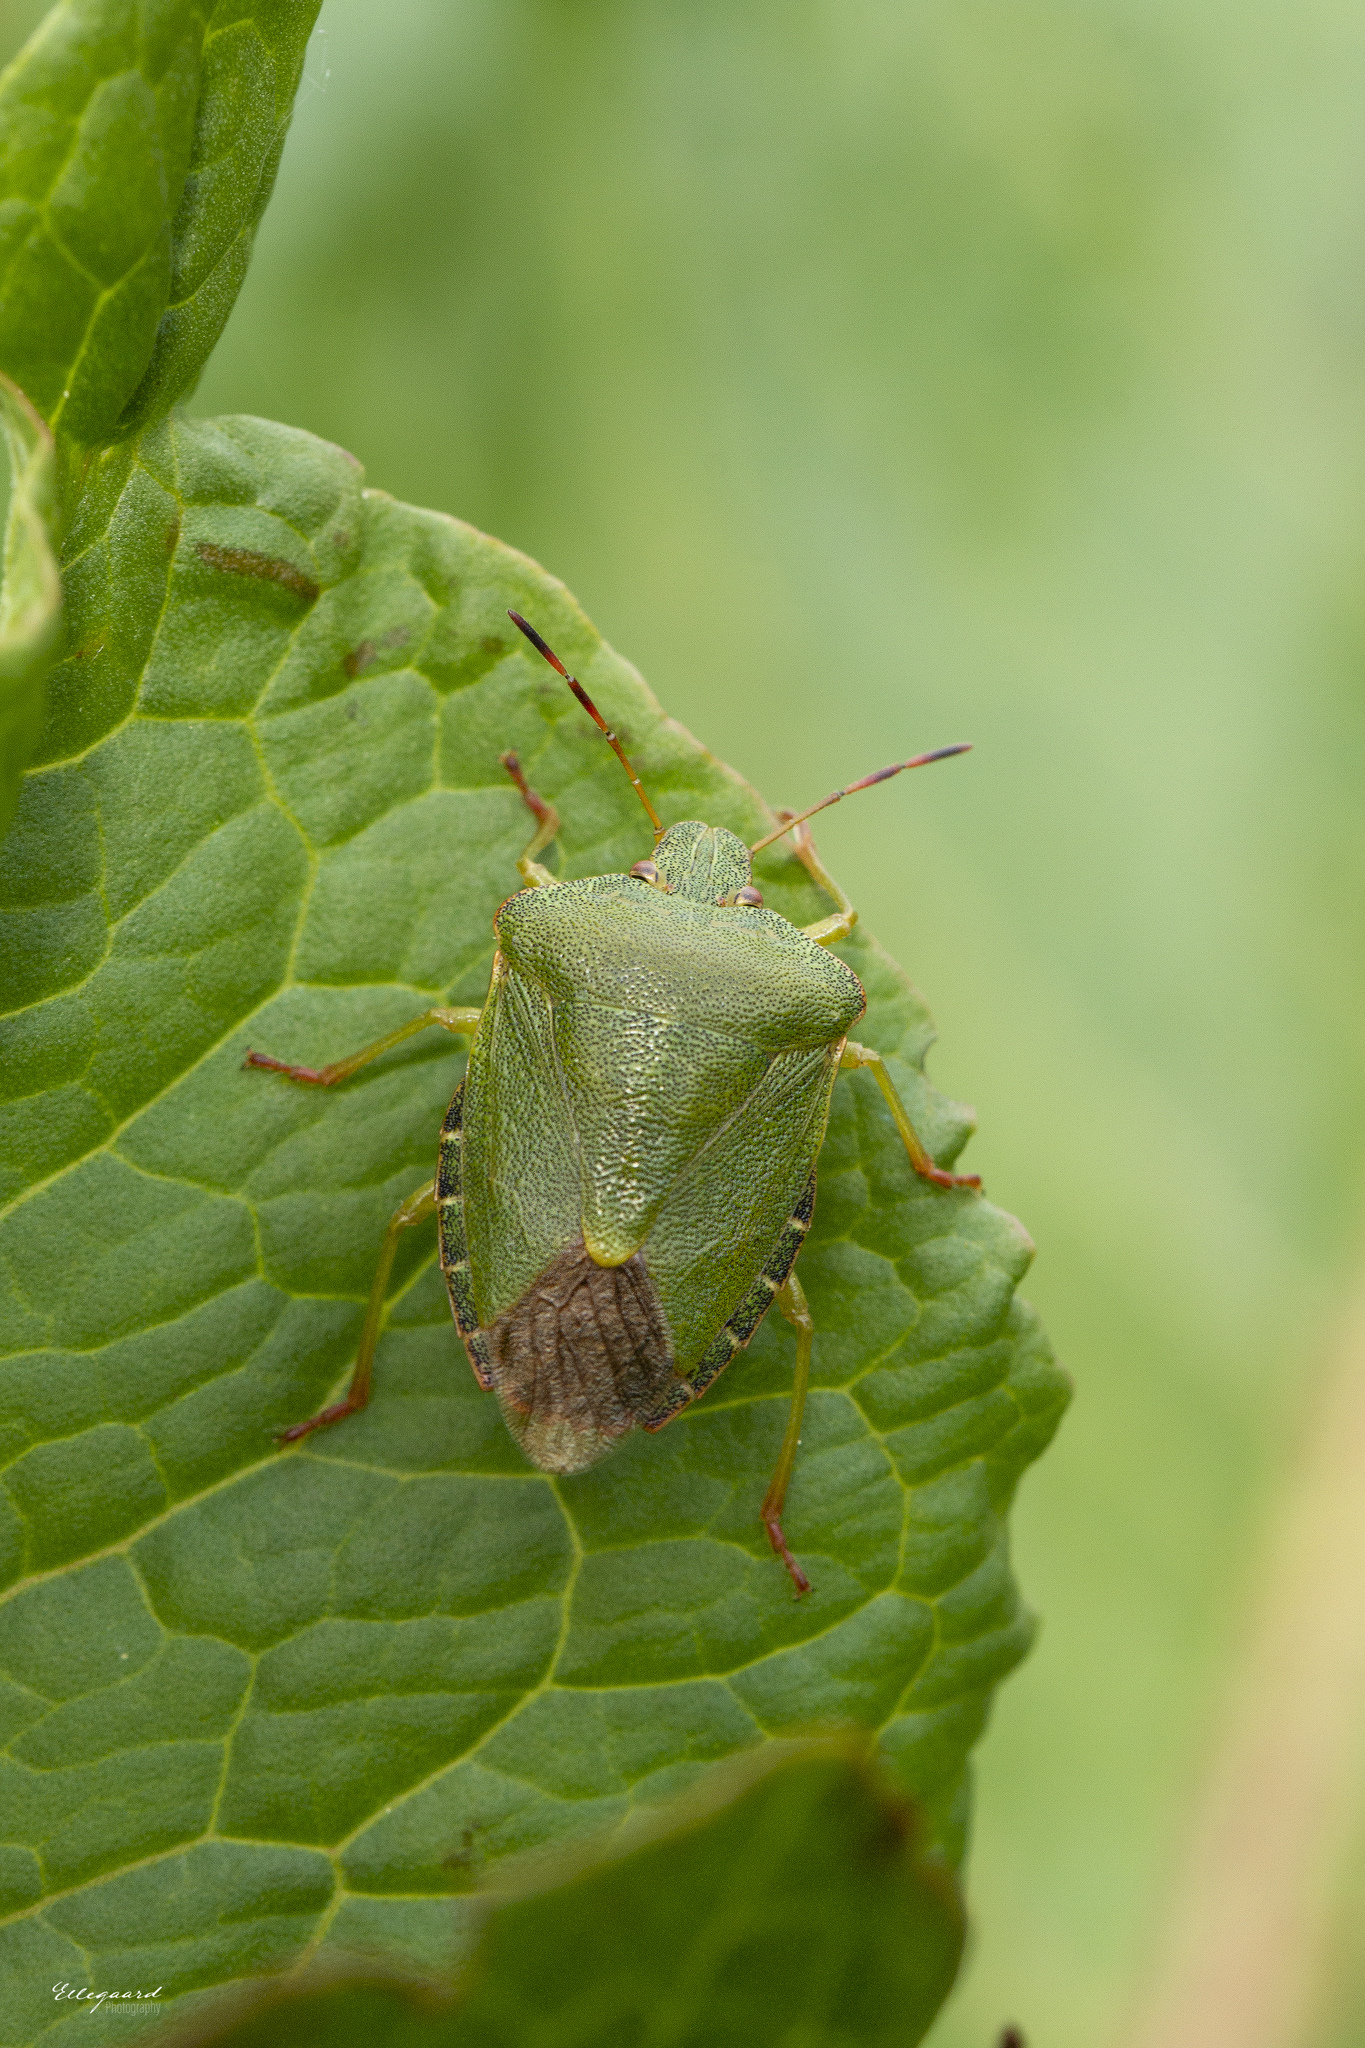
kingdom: Animalia
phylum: Arthropoda
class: Insecta
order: Hemiptera
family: Pentatomidae
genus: Palomena
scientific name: Palomena prasina
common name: Green shieldbug
